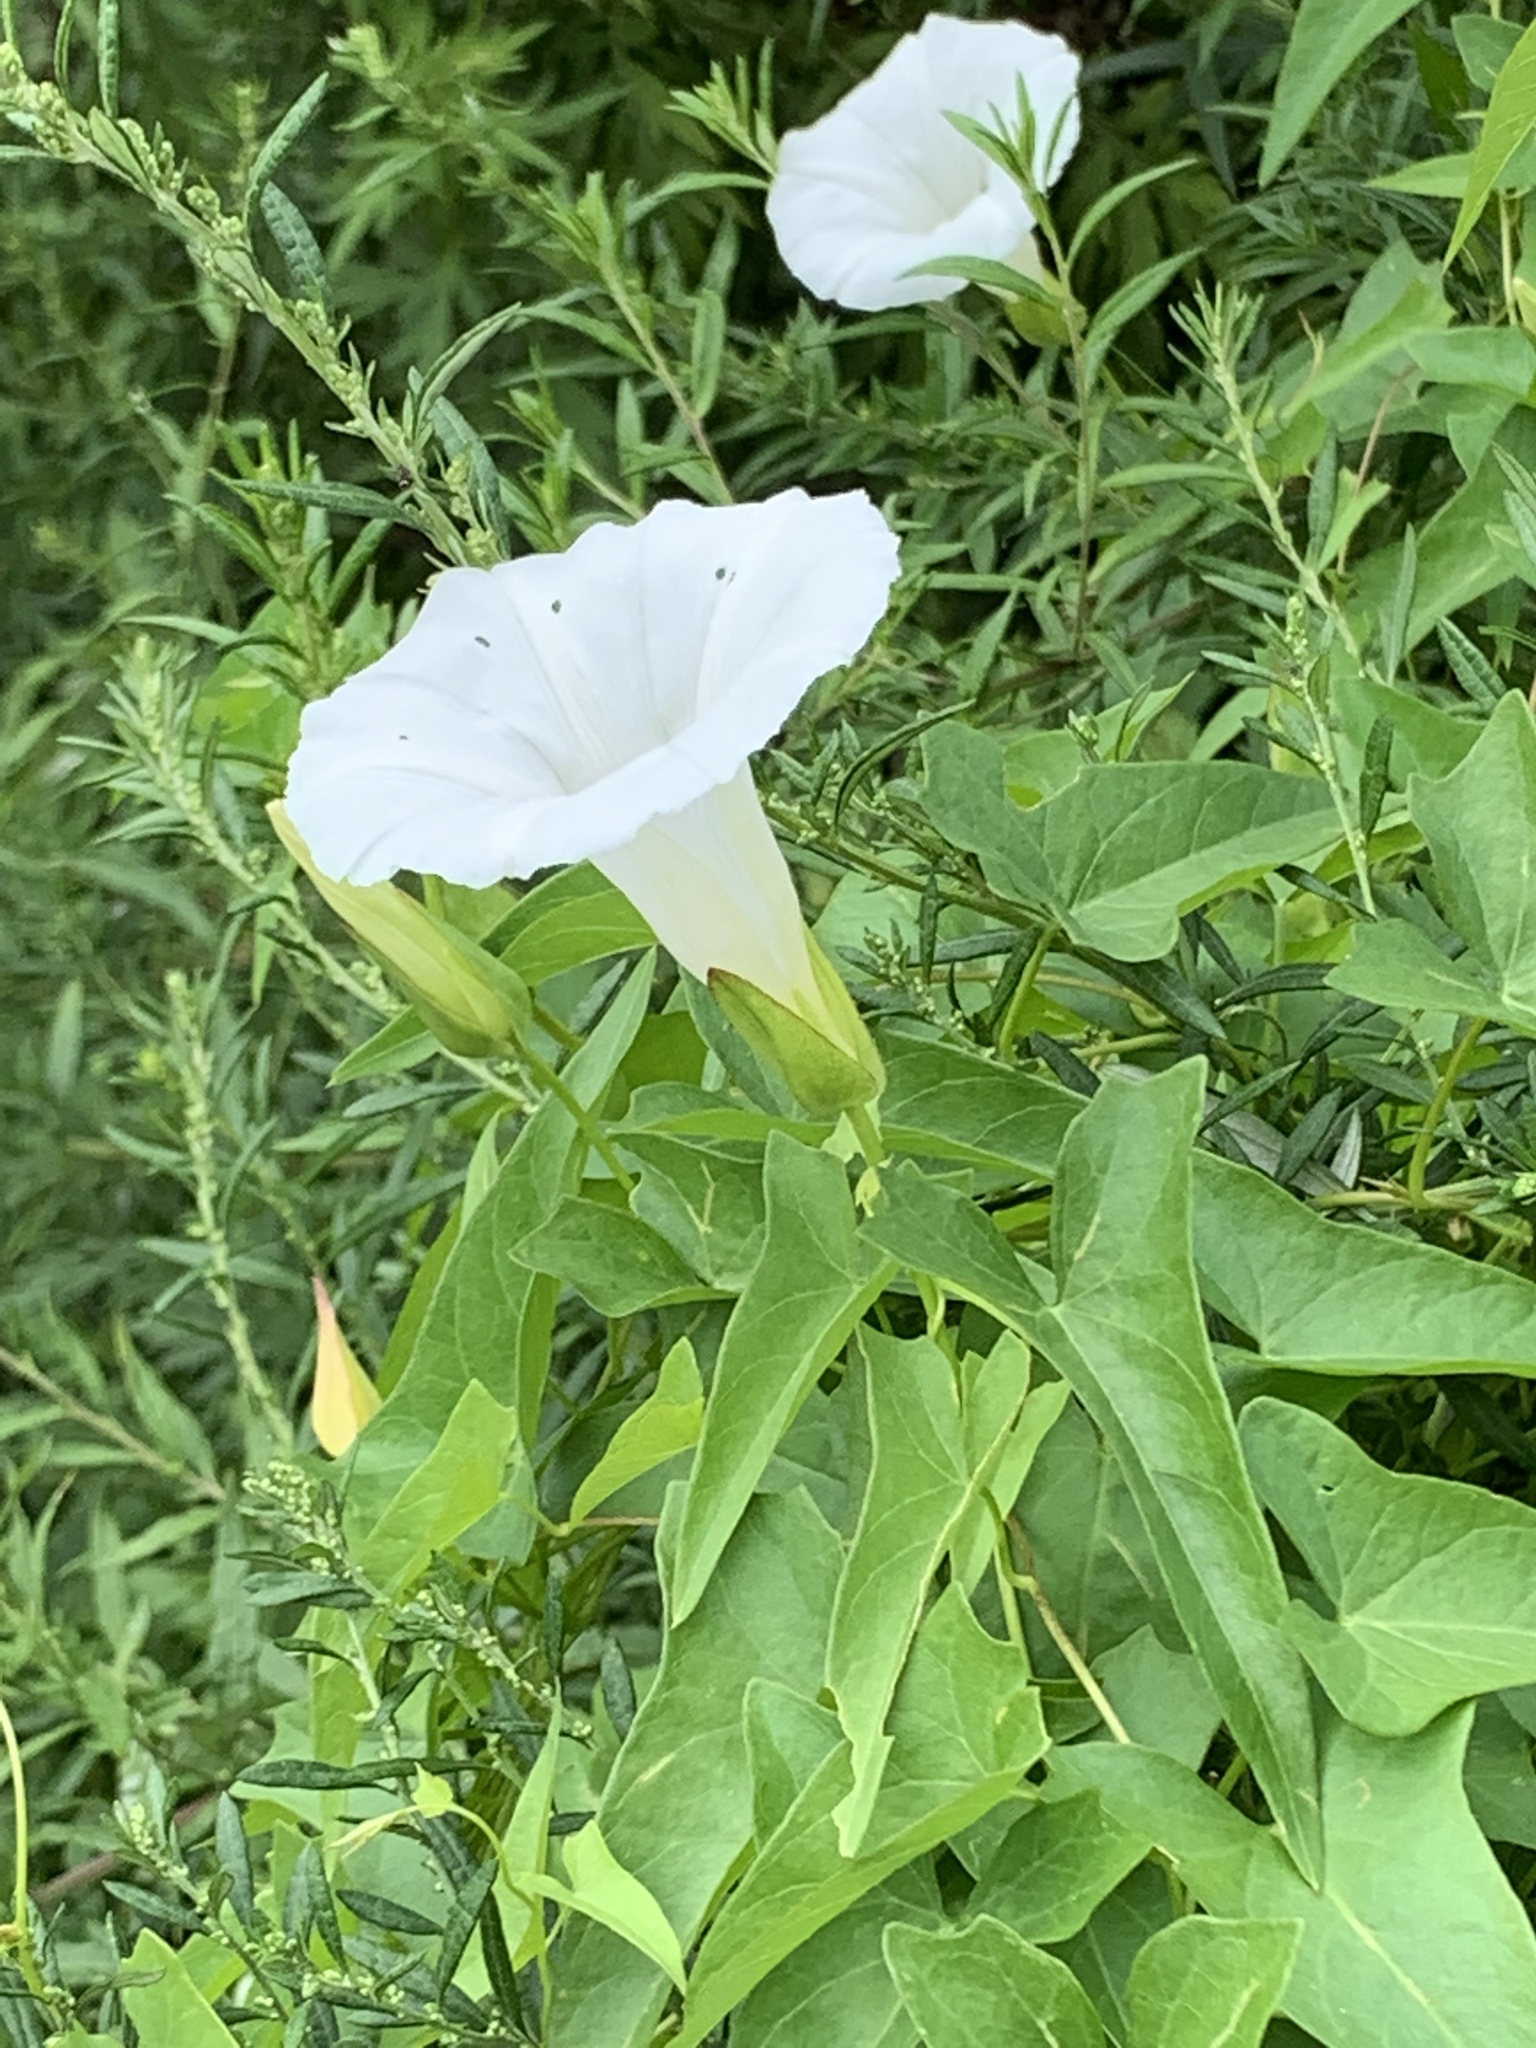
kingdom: Plantae
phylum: Tracheophyta
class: Magnoliopsida
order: Solanales
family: Convolvulaceae
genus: Calystegia
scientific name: Calystegia sepium
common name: Hedge bindweed
